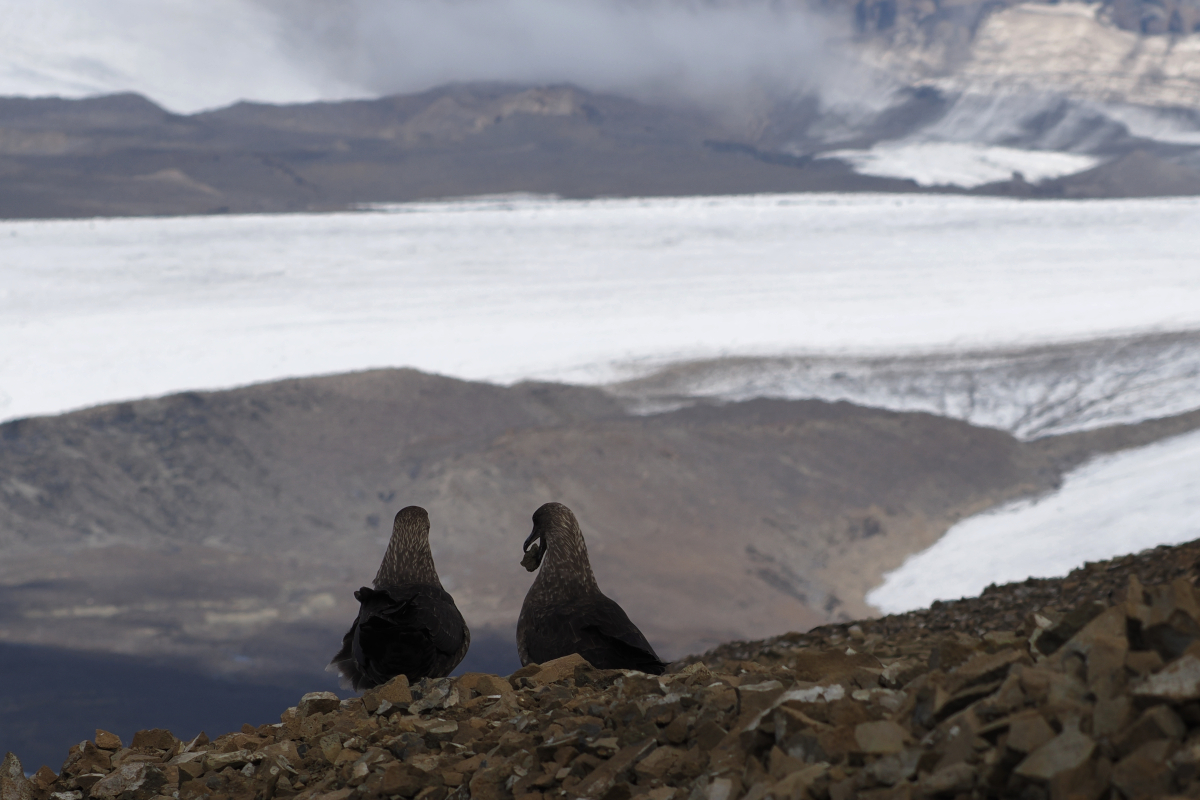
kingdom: Animalia
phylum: Chordata
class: Aves
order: Charadriiformes
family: Stercorariidae
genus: Stercorarius
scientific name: Stercorarius maccormicki
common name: South polar skua
